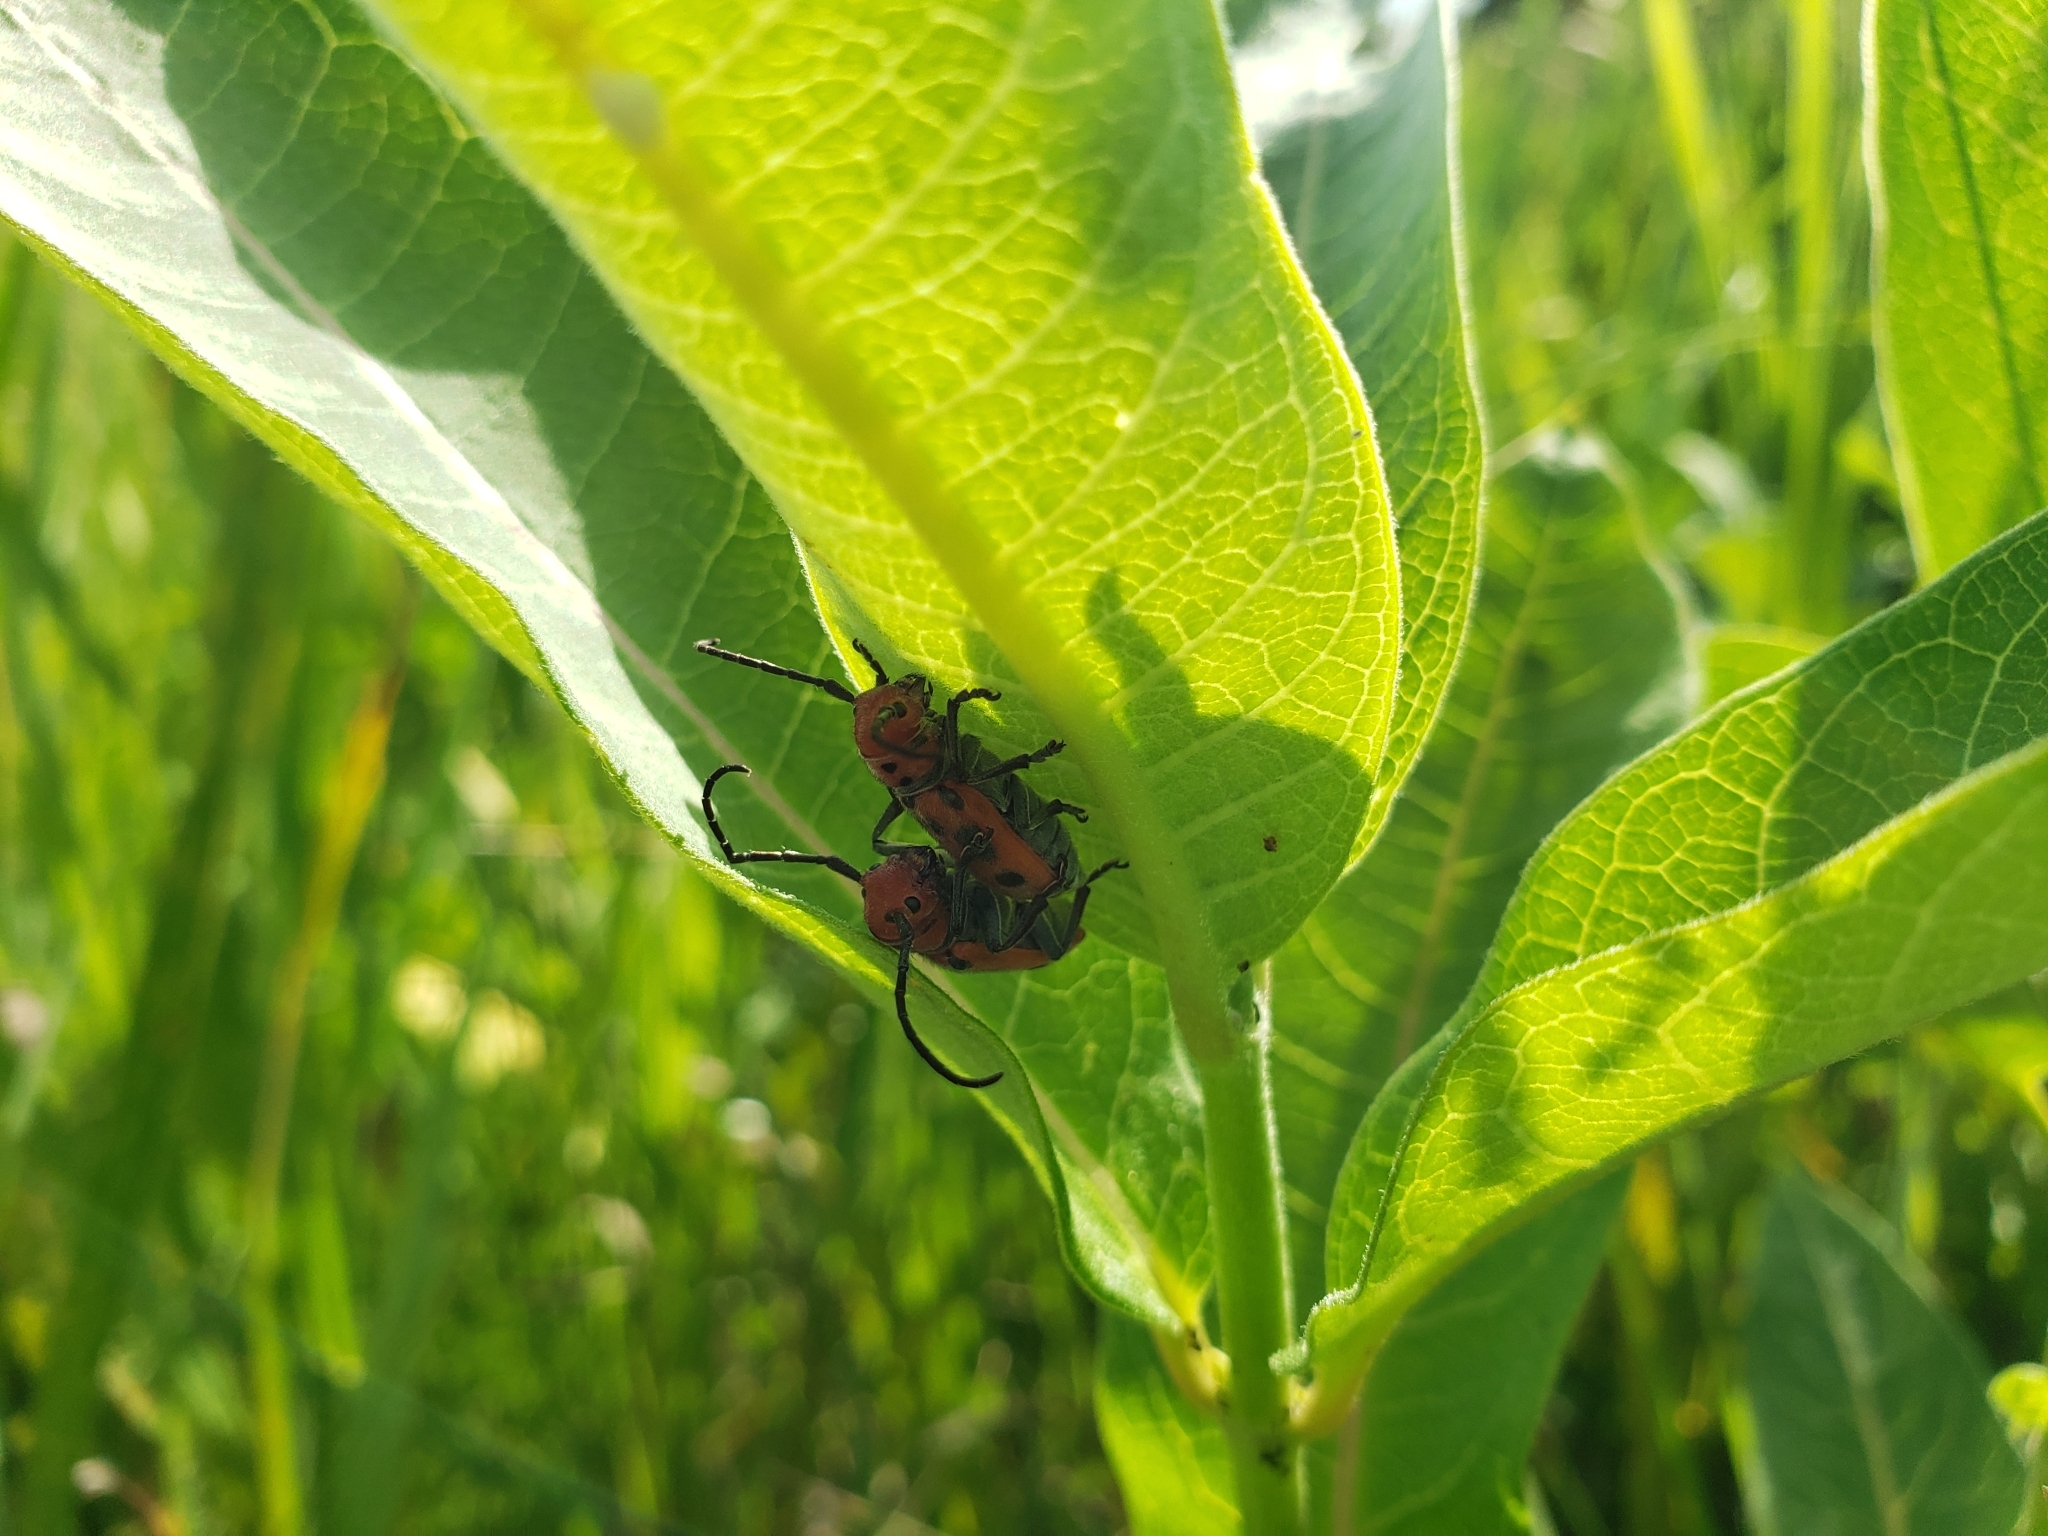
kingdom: Animalia
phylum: Arthropoda
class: Insecta
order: Coleoptera
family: Cerambycidae
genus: Tetraopes
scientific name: Tetraopes tetrophthalmus
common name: Red milkweed beetle
